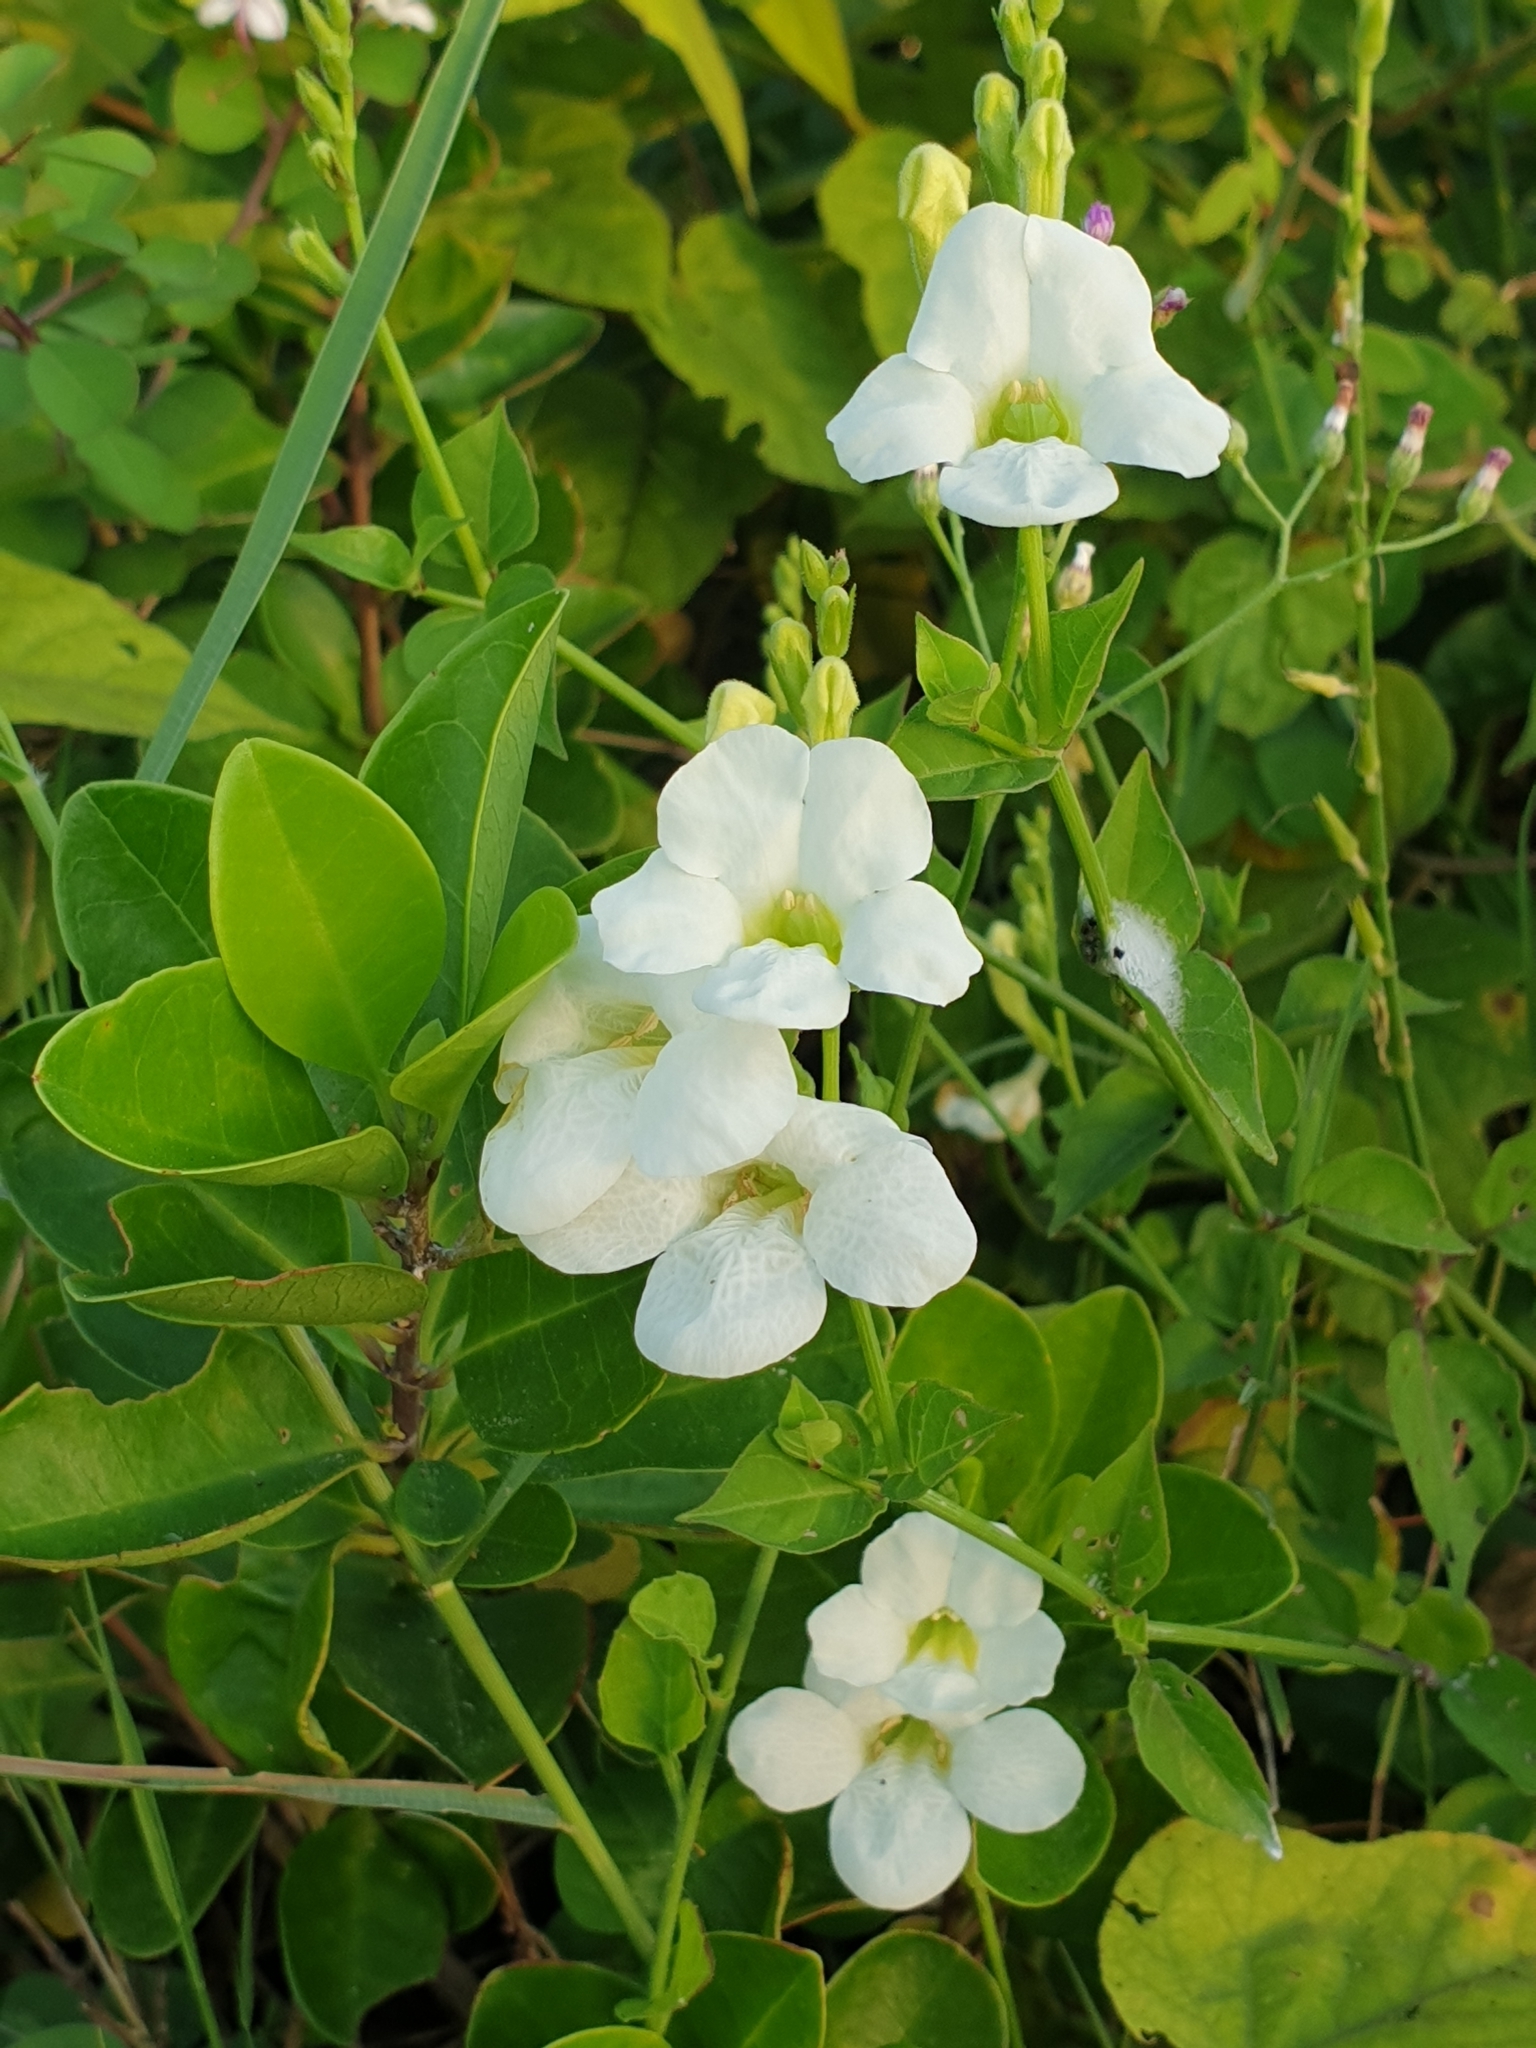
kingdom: Plantae
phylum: Tracheophyta
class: Magnoliopsida
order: Lamiales
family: Acanthaceae
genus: Asystasia
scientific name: Asystasia gangetica
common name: Chinese violet
